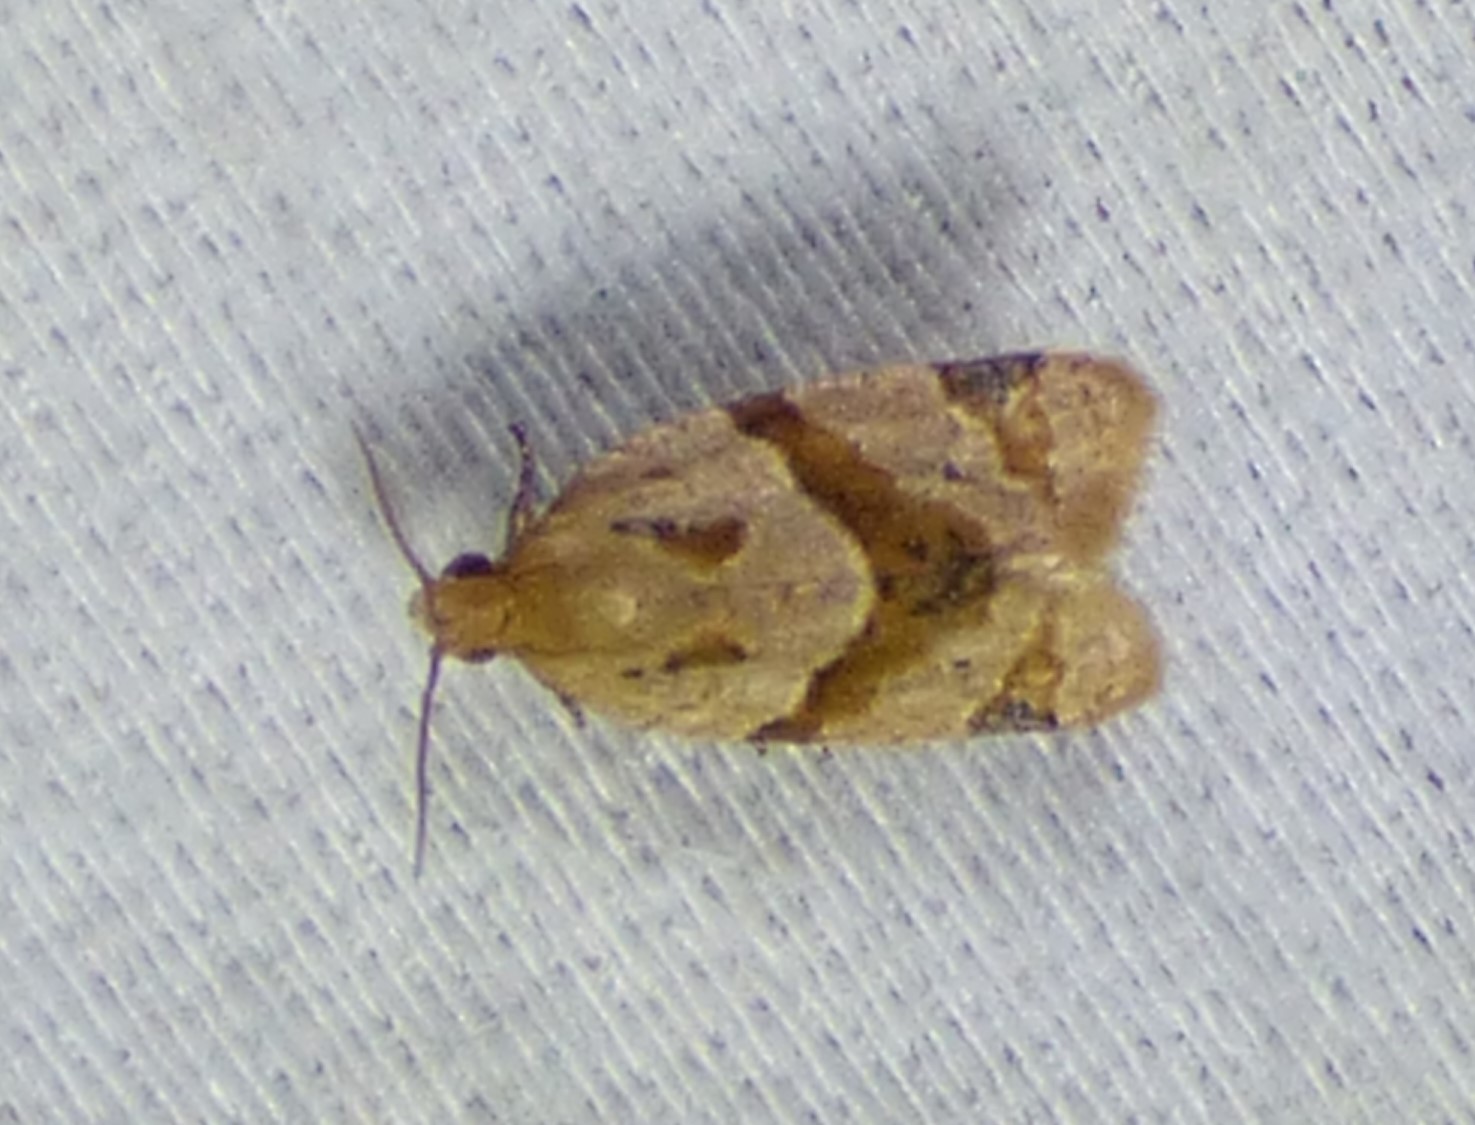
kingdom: Animalia
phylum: Arthropoda
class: Insecta
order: Lepidoptera
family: Tortricidae
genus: Clepsis
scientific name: Clepsis peritana
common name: Garden tortrix
